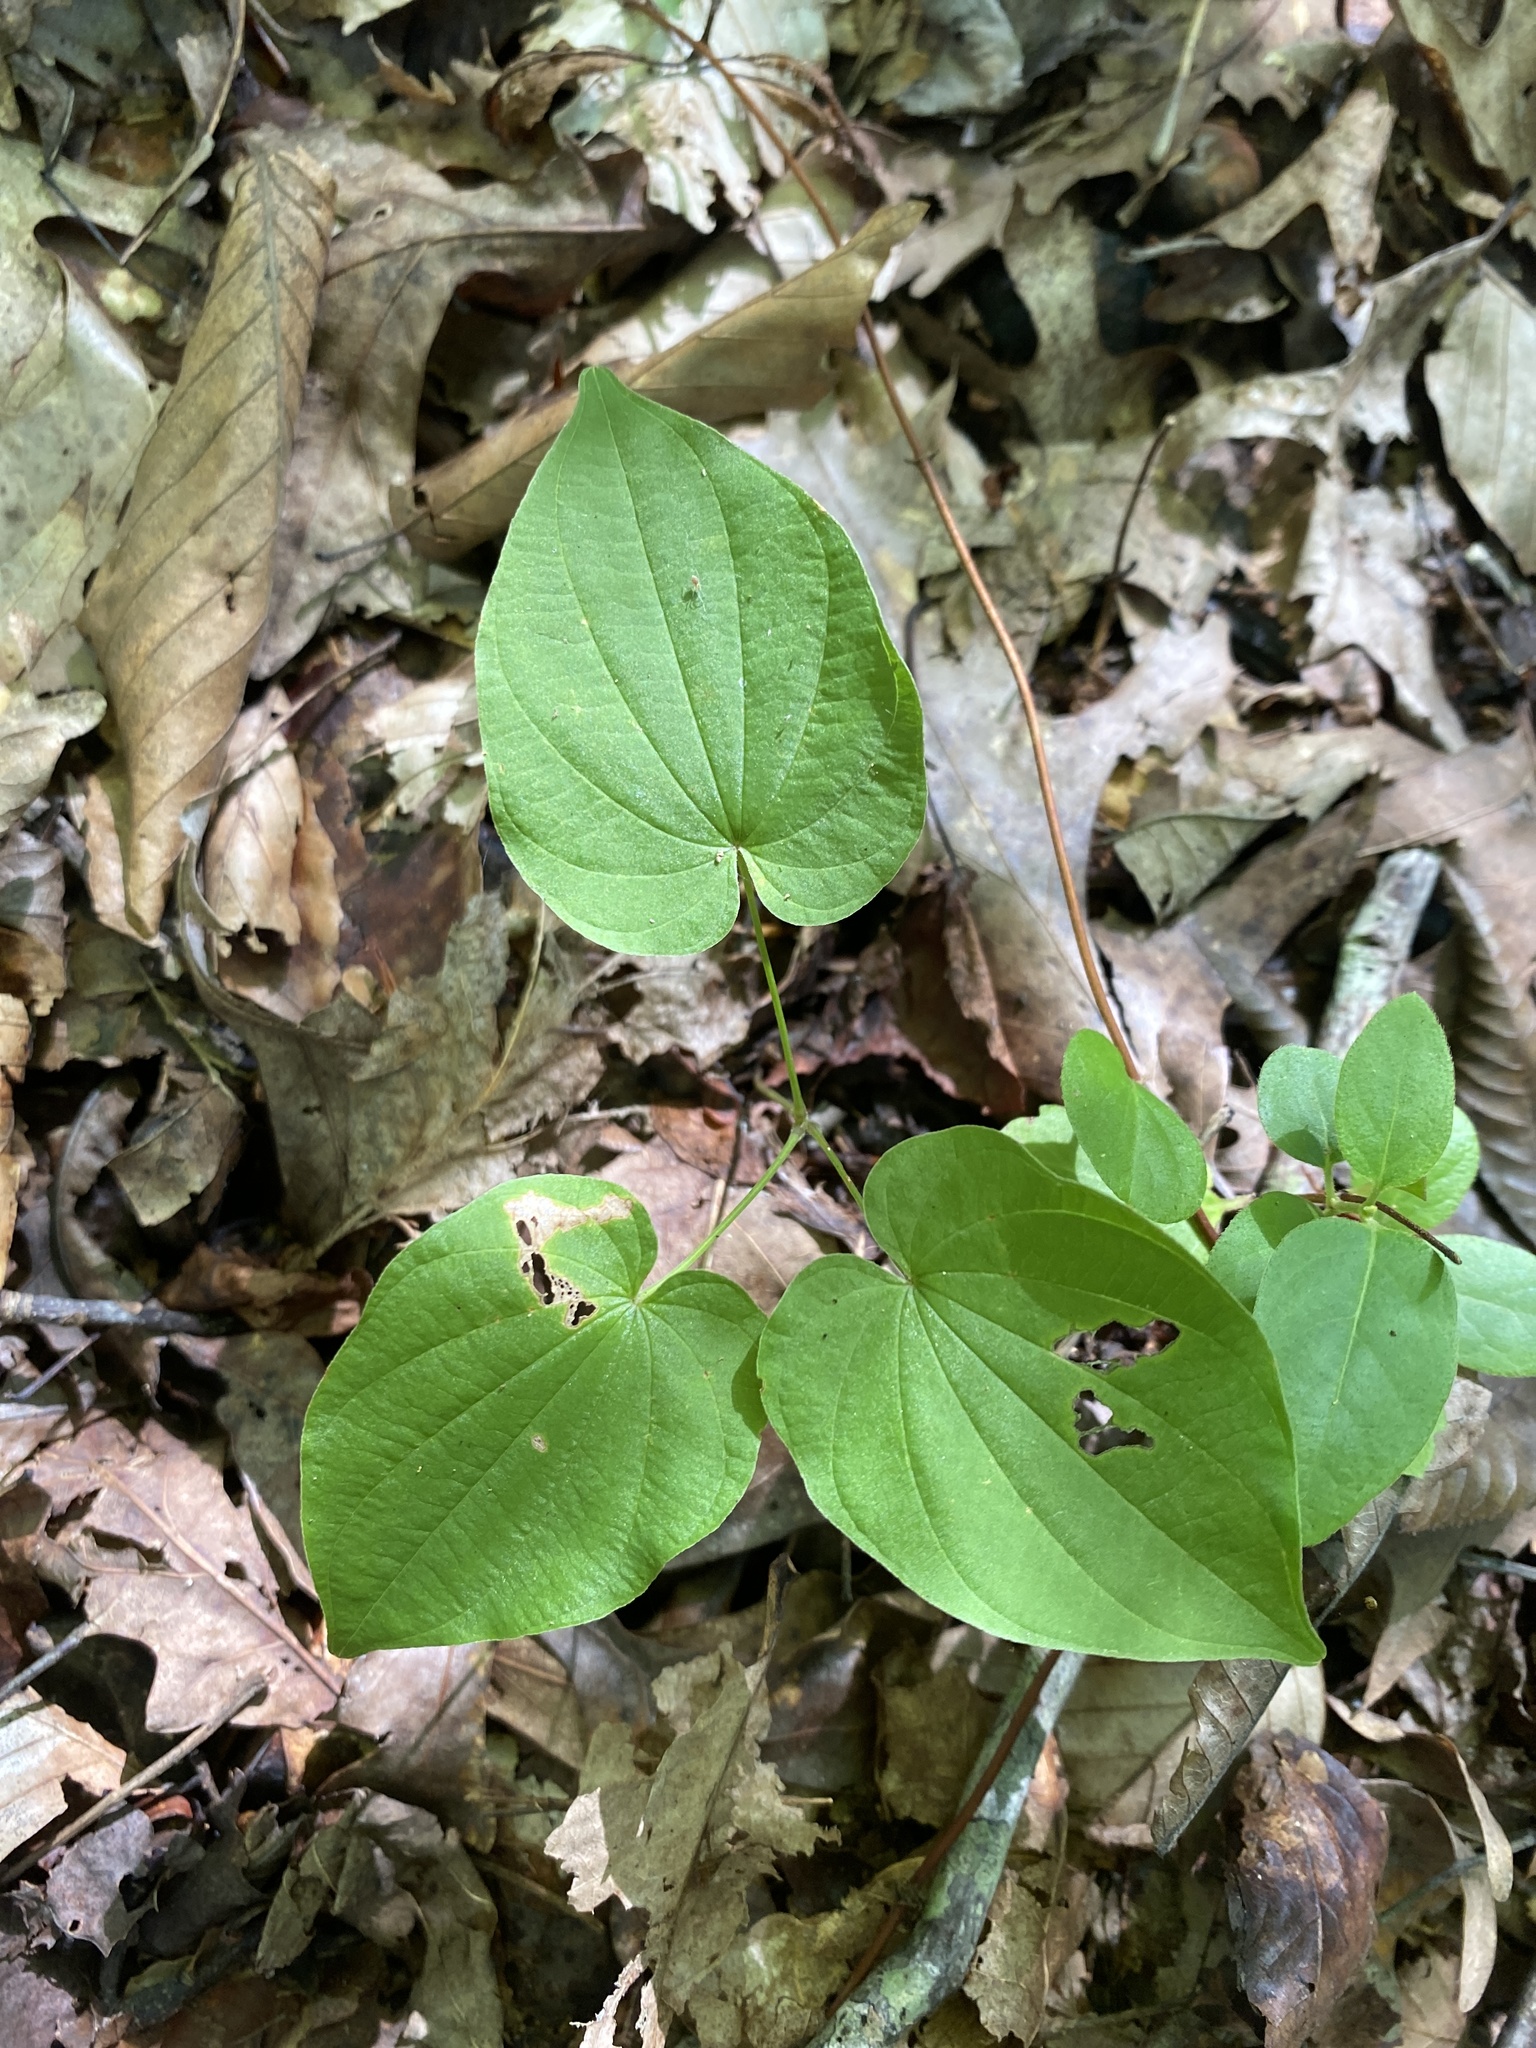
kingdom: Plantae
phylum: Tracheophyta
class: Liliopsida
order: Dioscoreales
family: Dioscoreaceae
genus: Dioscorea
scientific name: Dioscorea villosa
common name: Wild yam
